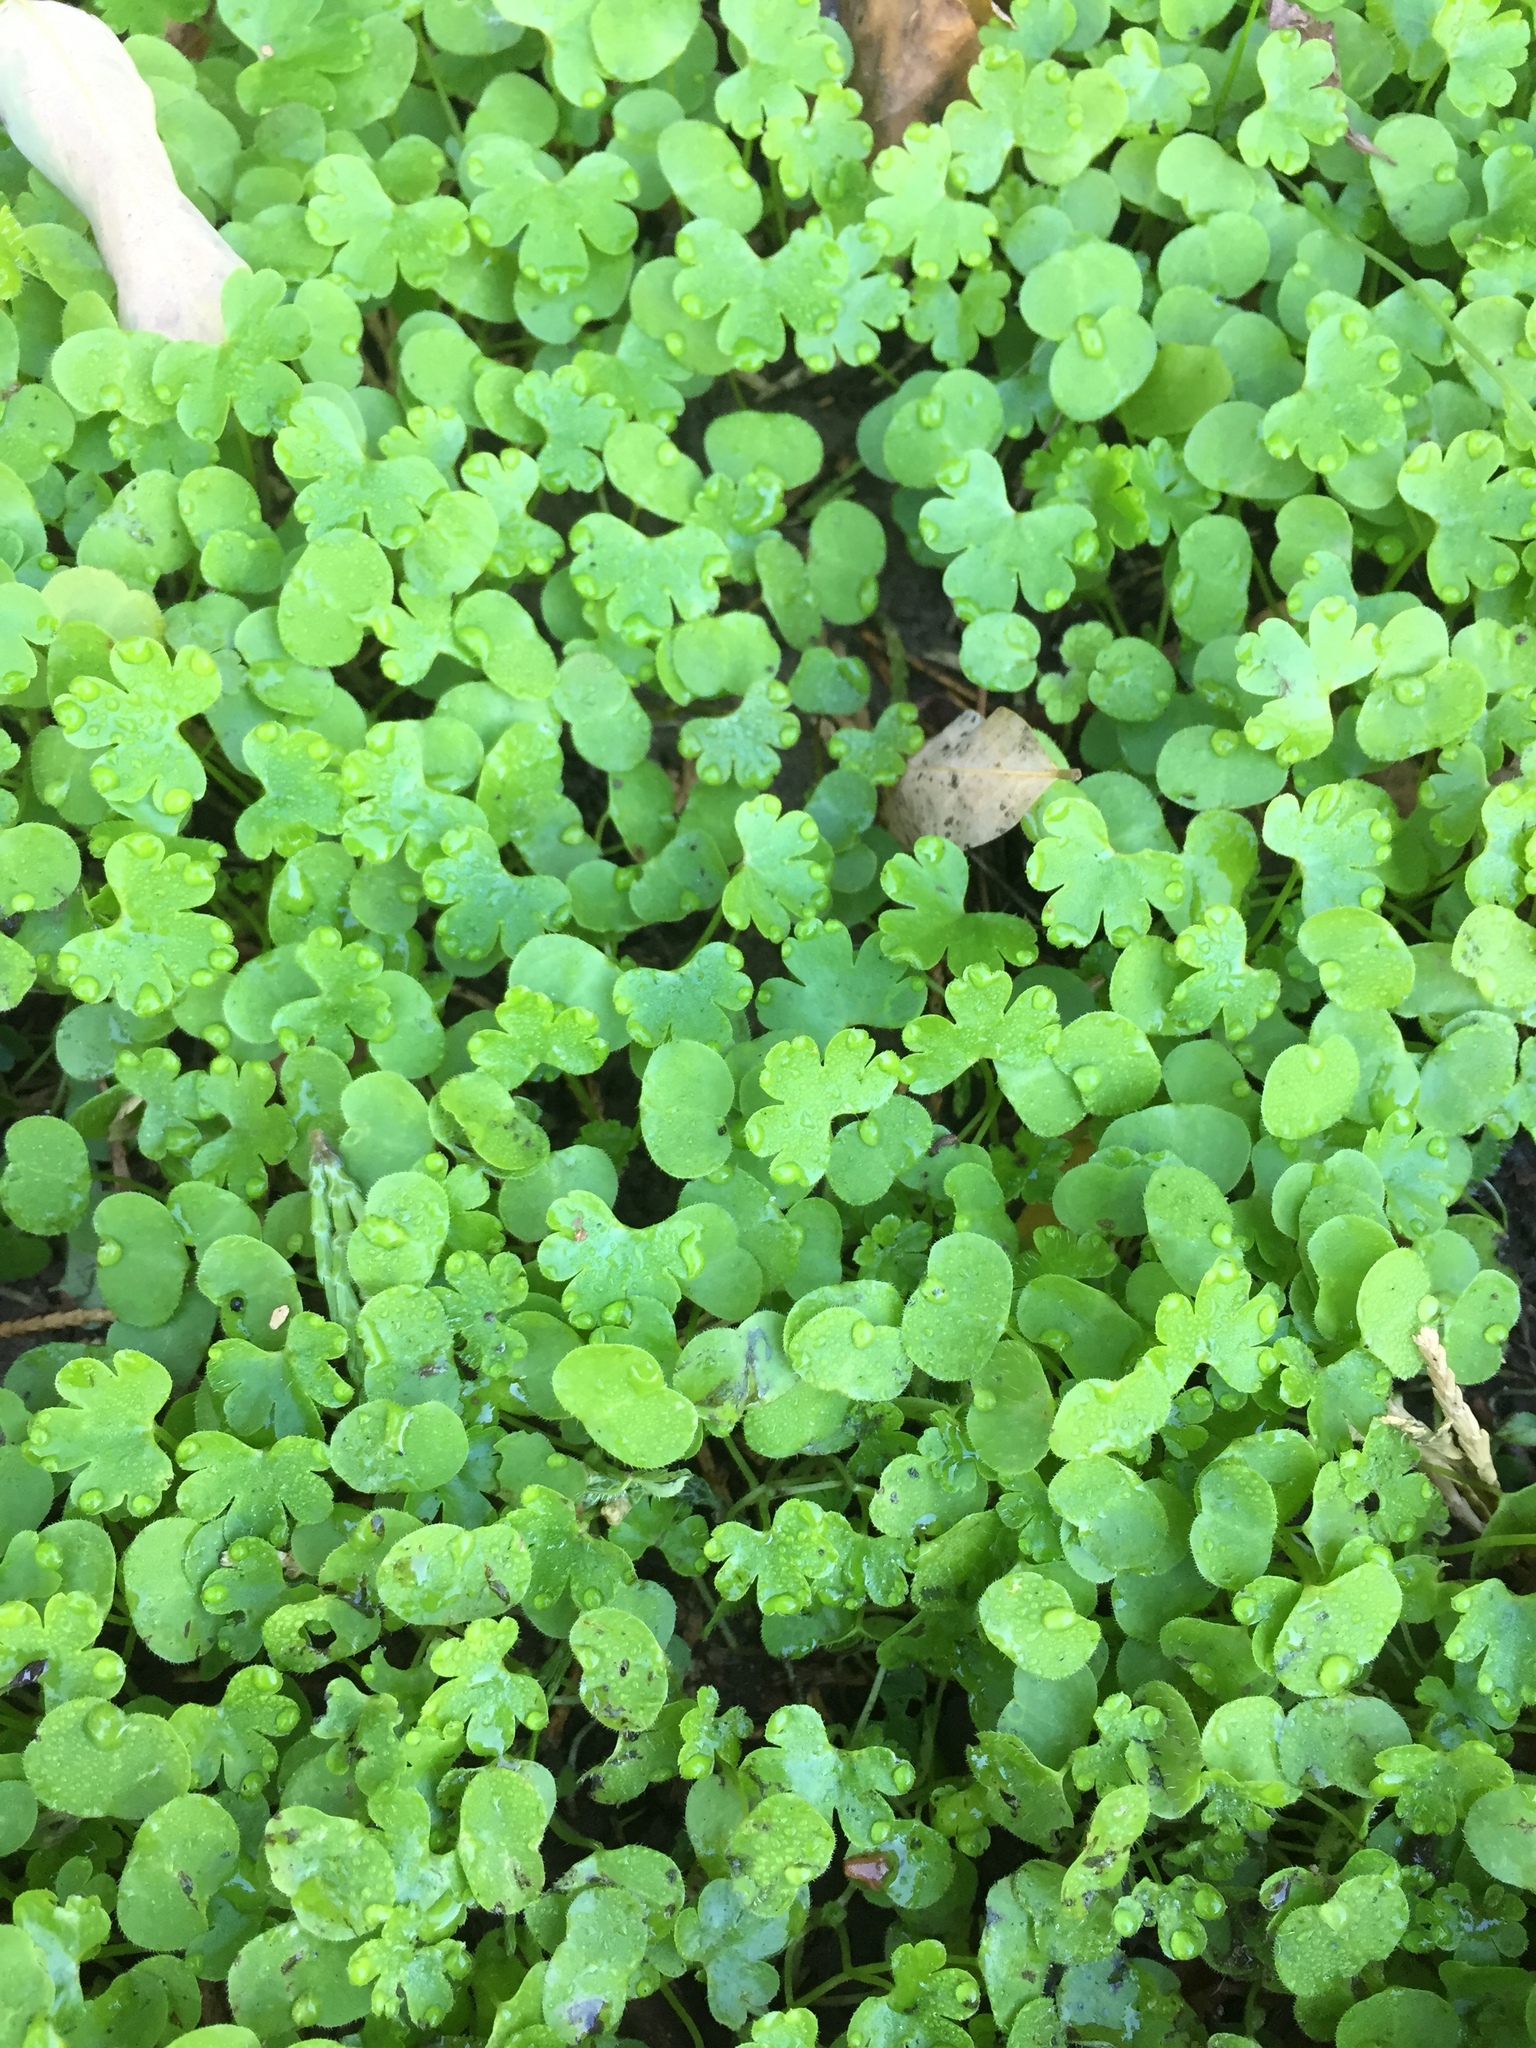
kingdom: Plantae
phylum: Tracheophyta
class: Magnoliopsida
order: Geraniales
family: Geraniaceae
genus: Geranium
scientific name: Geranium lucidum
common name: Shining crane's-bill
